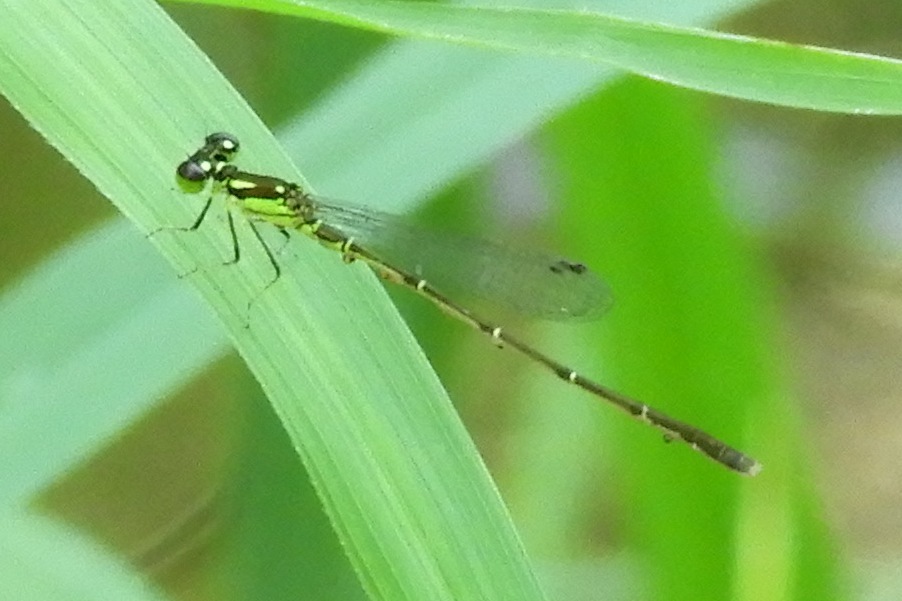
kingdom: Animalia
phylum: Arthropoda
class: Insecta
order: Odonata
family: Coenagrionidae
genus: Ischnura
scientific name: Ischnura posita
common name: Fragile forktail
